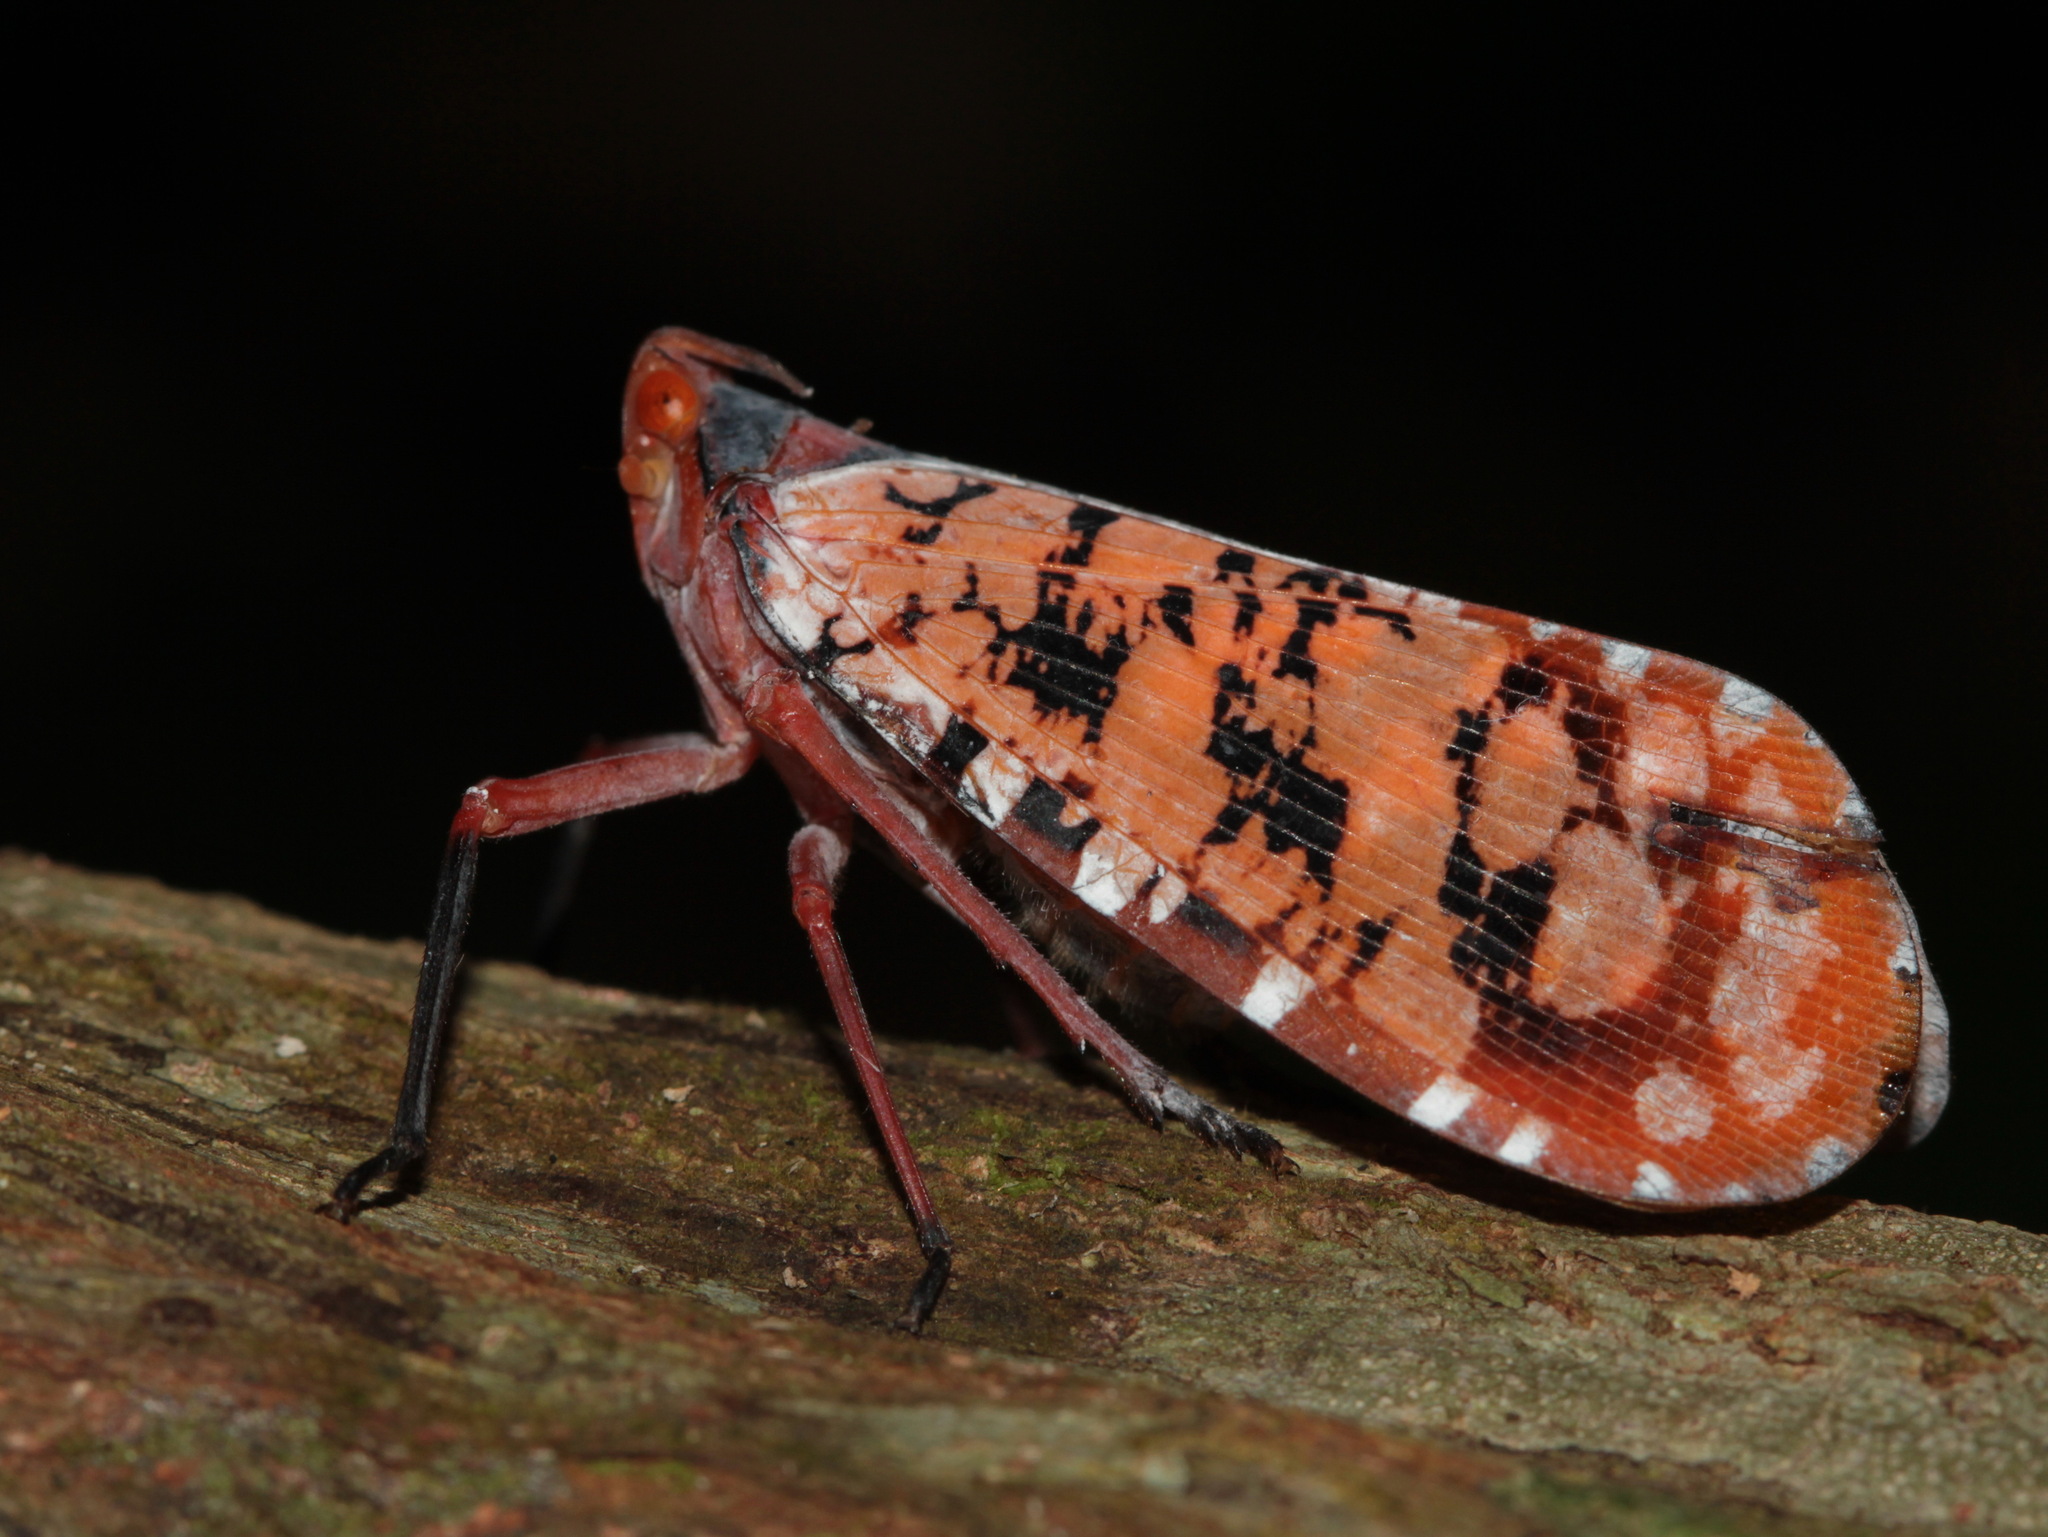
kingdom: Animalia
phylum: Arthropoda
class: Insecta
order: Hemiptera
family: Fulgoridae
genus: Aphaena
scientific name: Aphaena discolor
